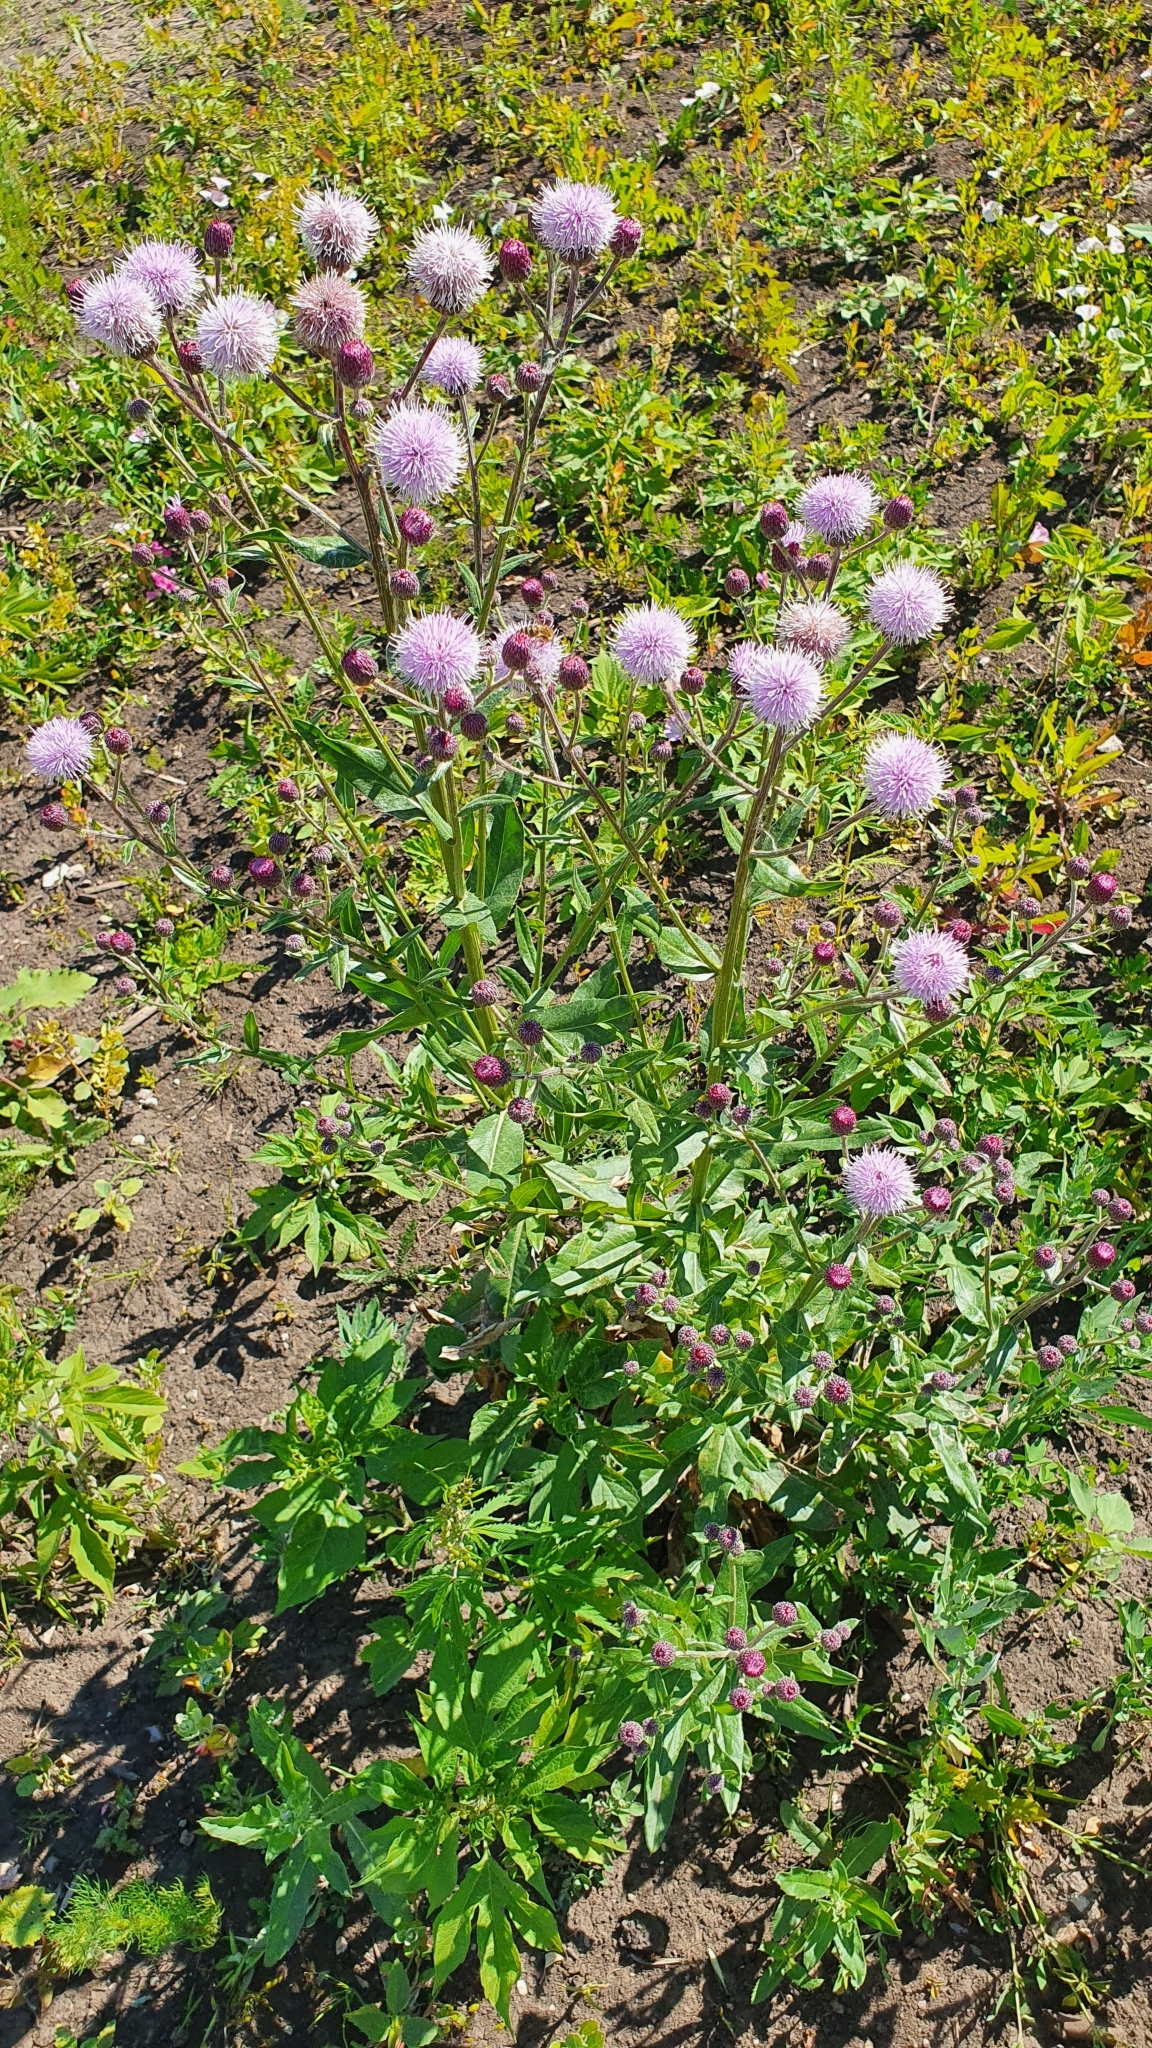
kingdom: Plantae
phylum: Tracheophyta
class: Magnoliopsida
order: Asterales
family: Asteraceae
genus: Cirsium
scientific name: Cirsium arvense
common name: Creeping thistle
